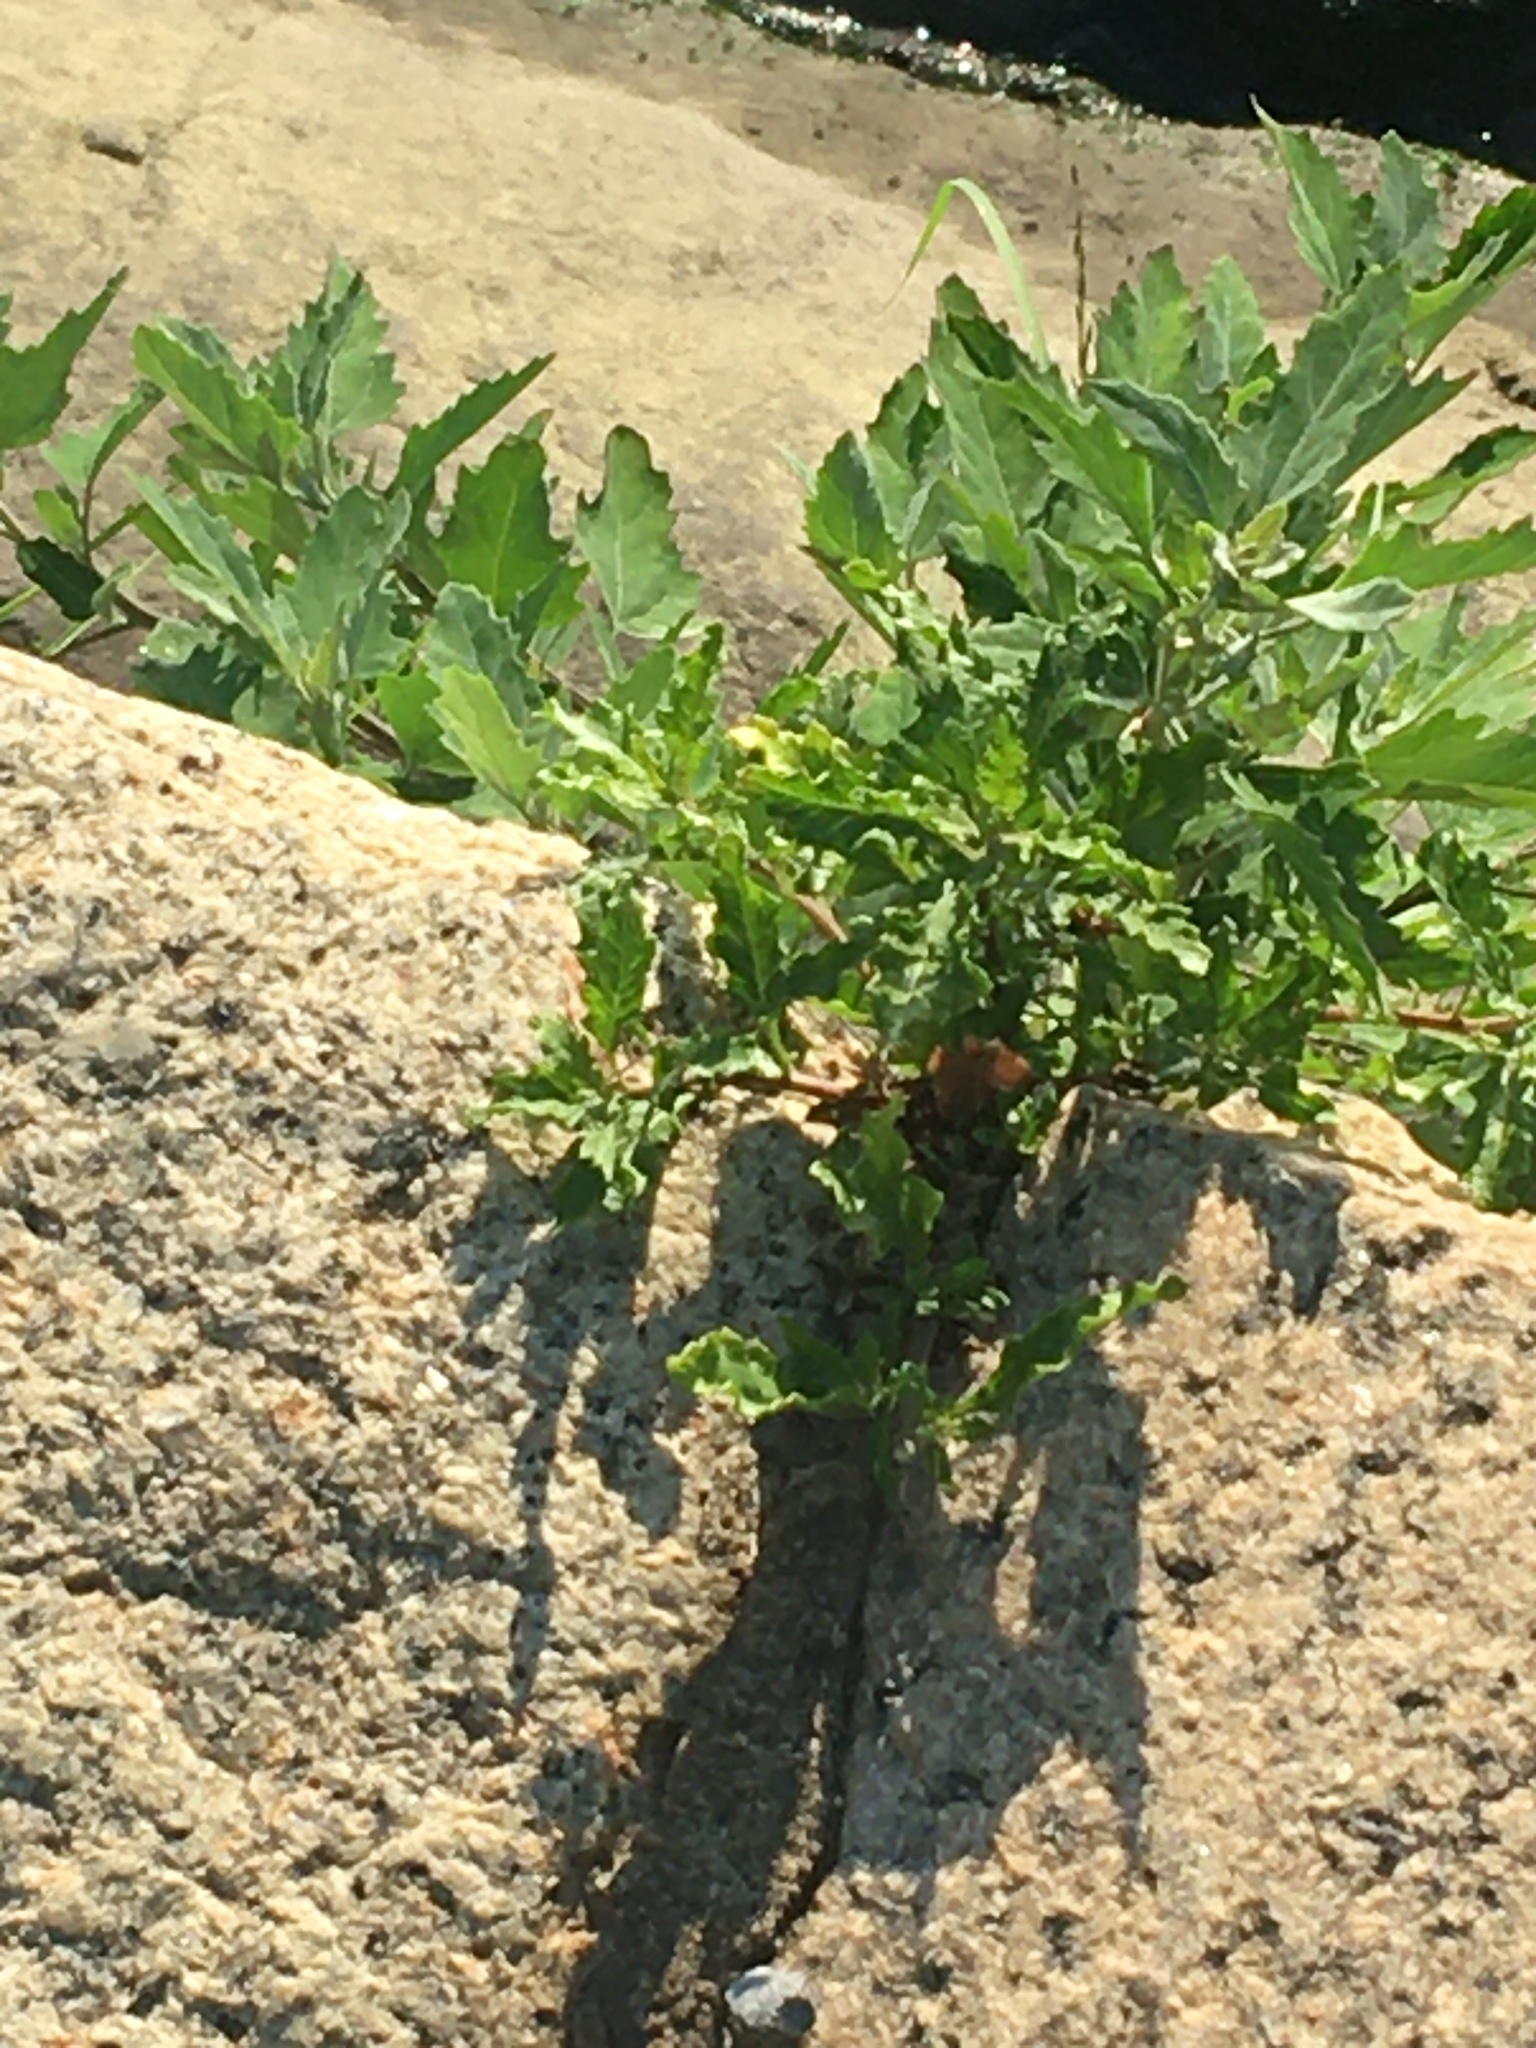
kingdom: Plantae
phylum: Tracheophyta
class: Magnoliopsida
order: Caryophyllales
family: Amaranthaceae
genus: Dysphania
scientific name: Dysphania ambrosioides
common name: Wormseed
